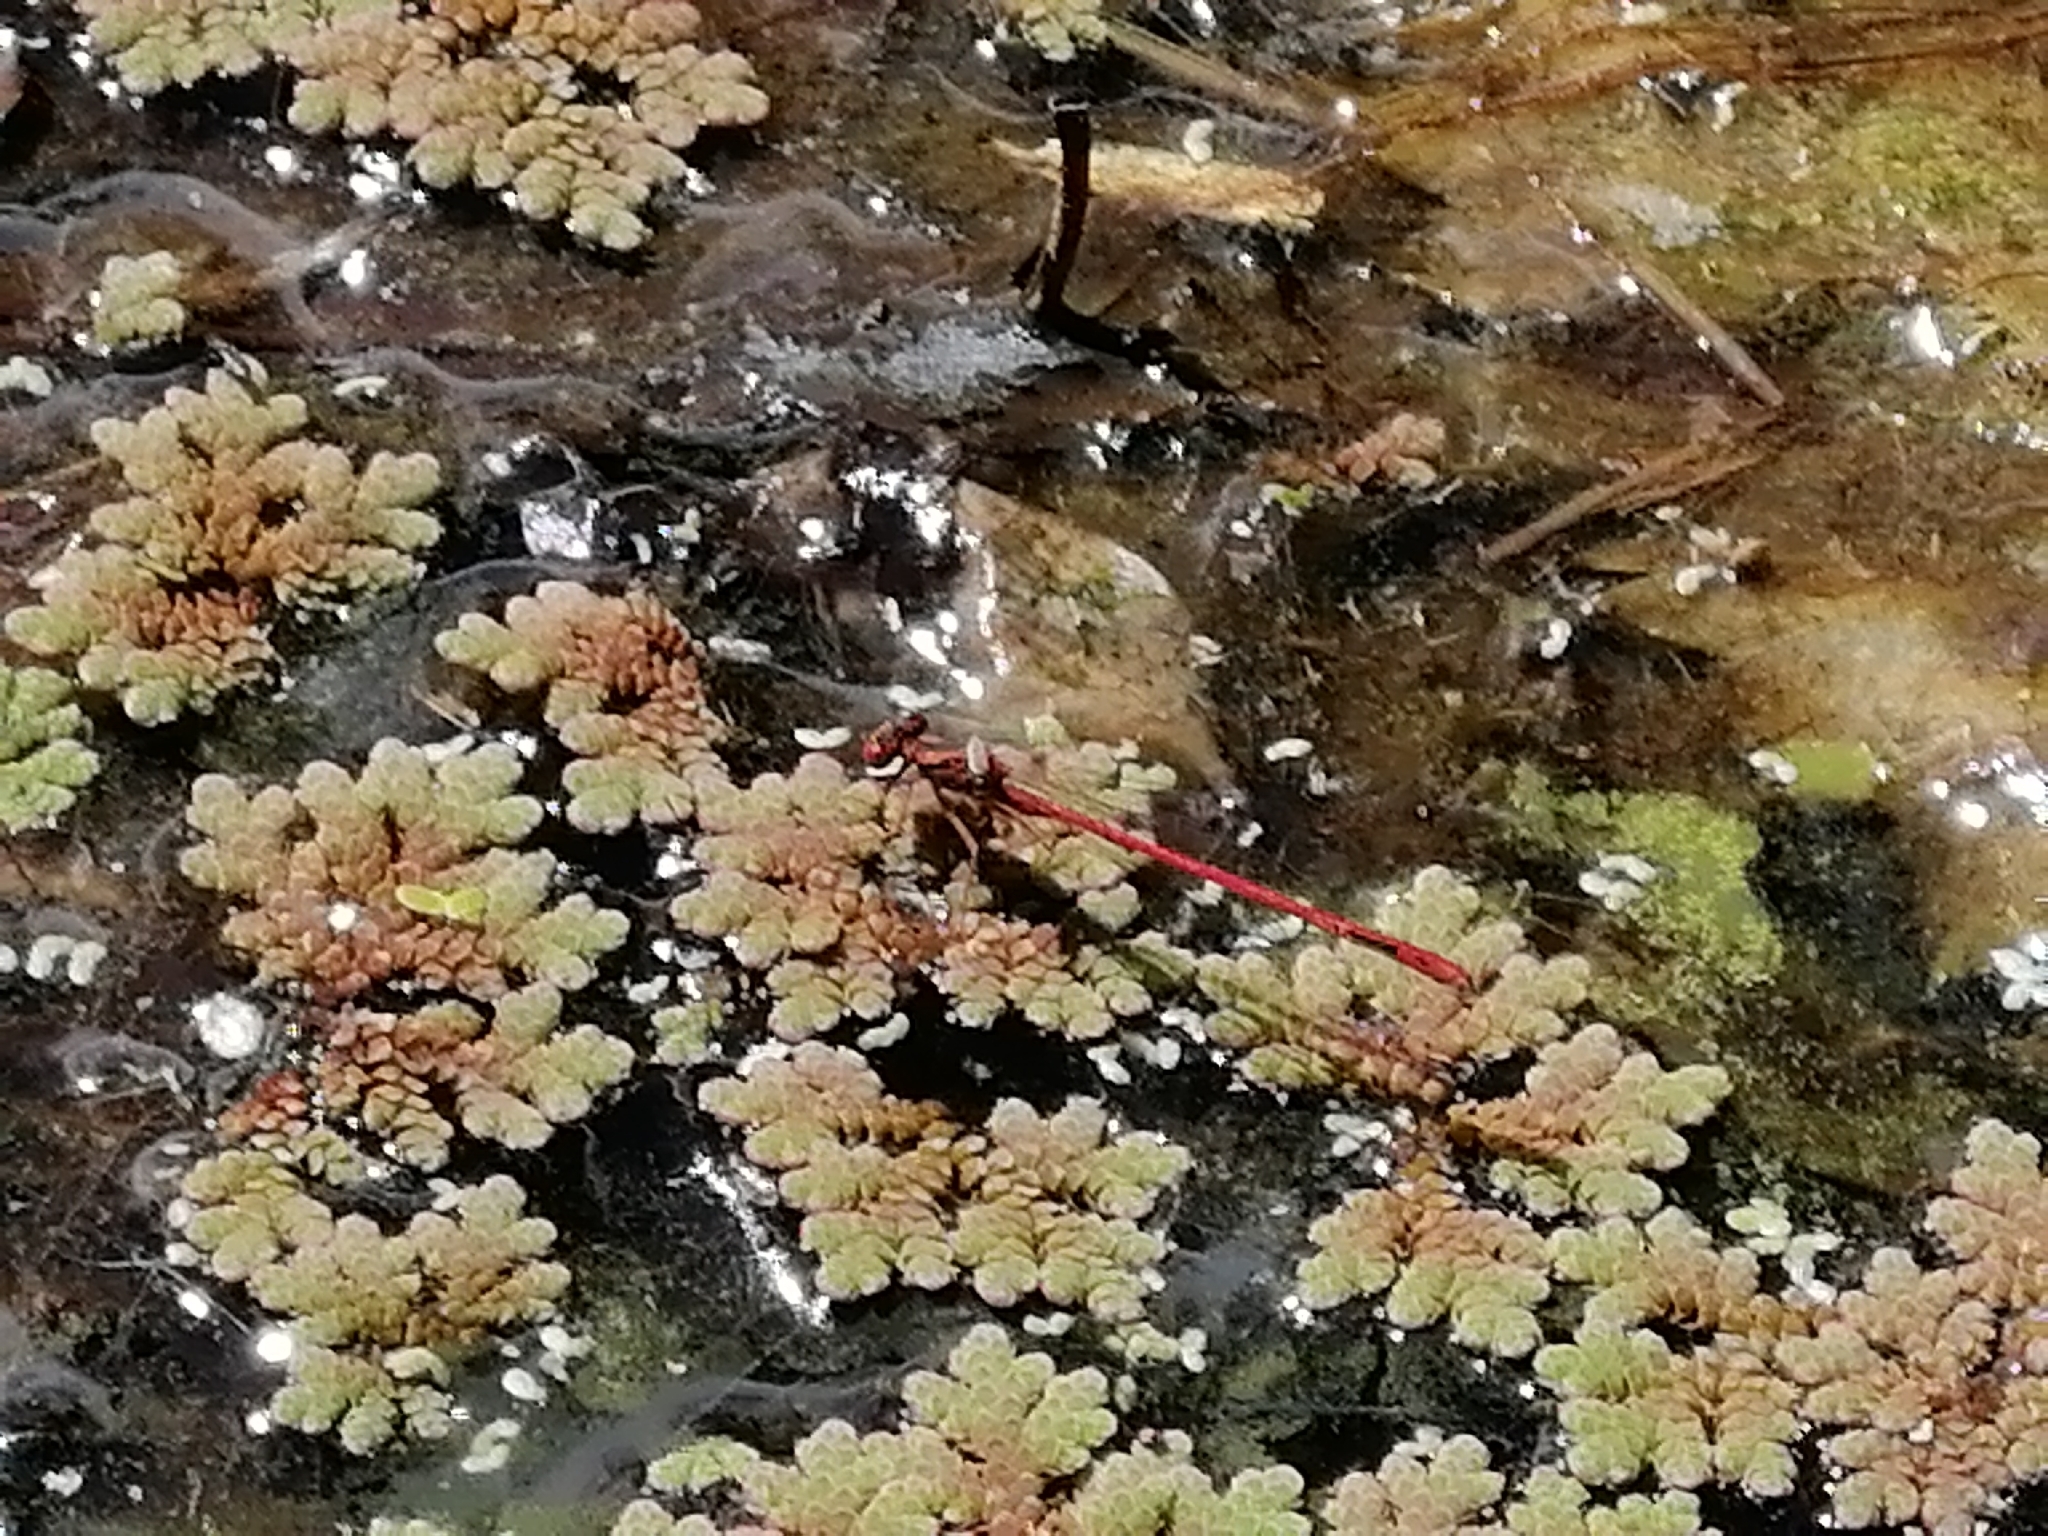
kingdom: Animalia
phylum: Arthropoda
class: Insecta
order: Odonata
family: Coenagrionidae
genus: Xanthocnemis
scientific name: Xanthocnemis zealandica
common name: Common redcoat damselfly
